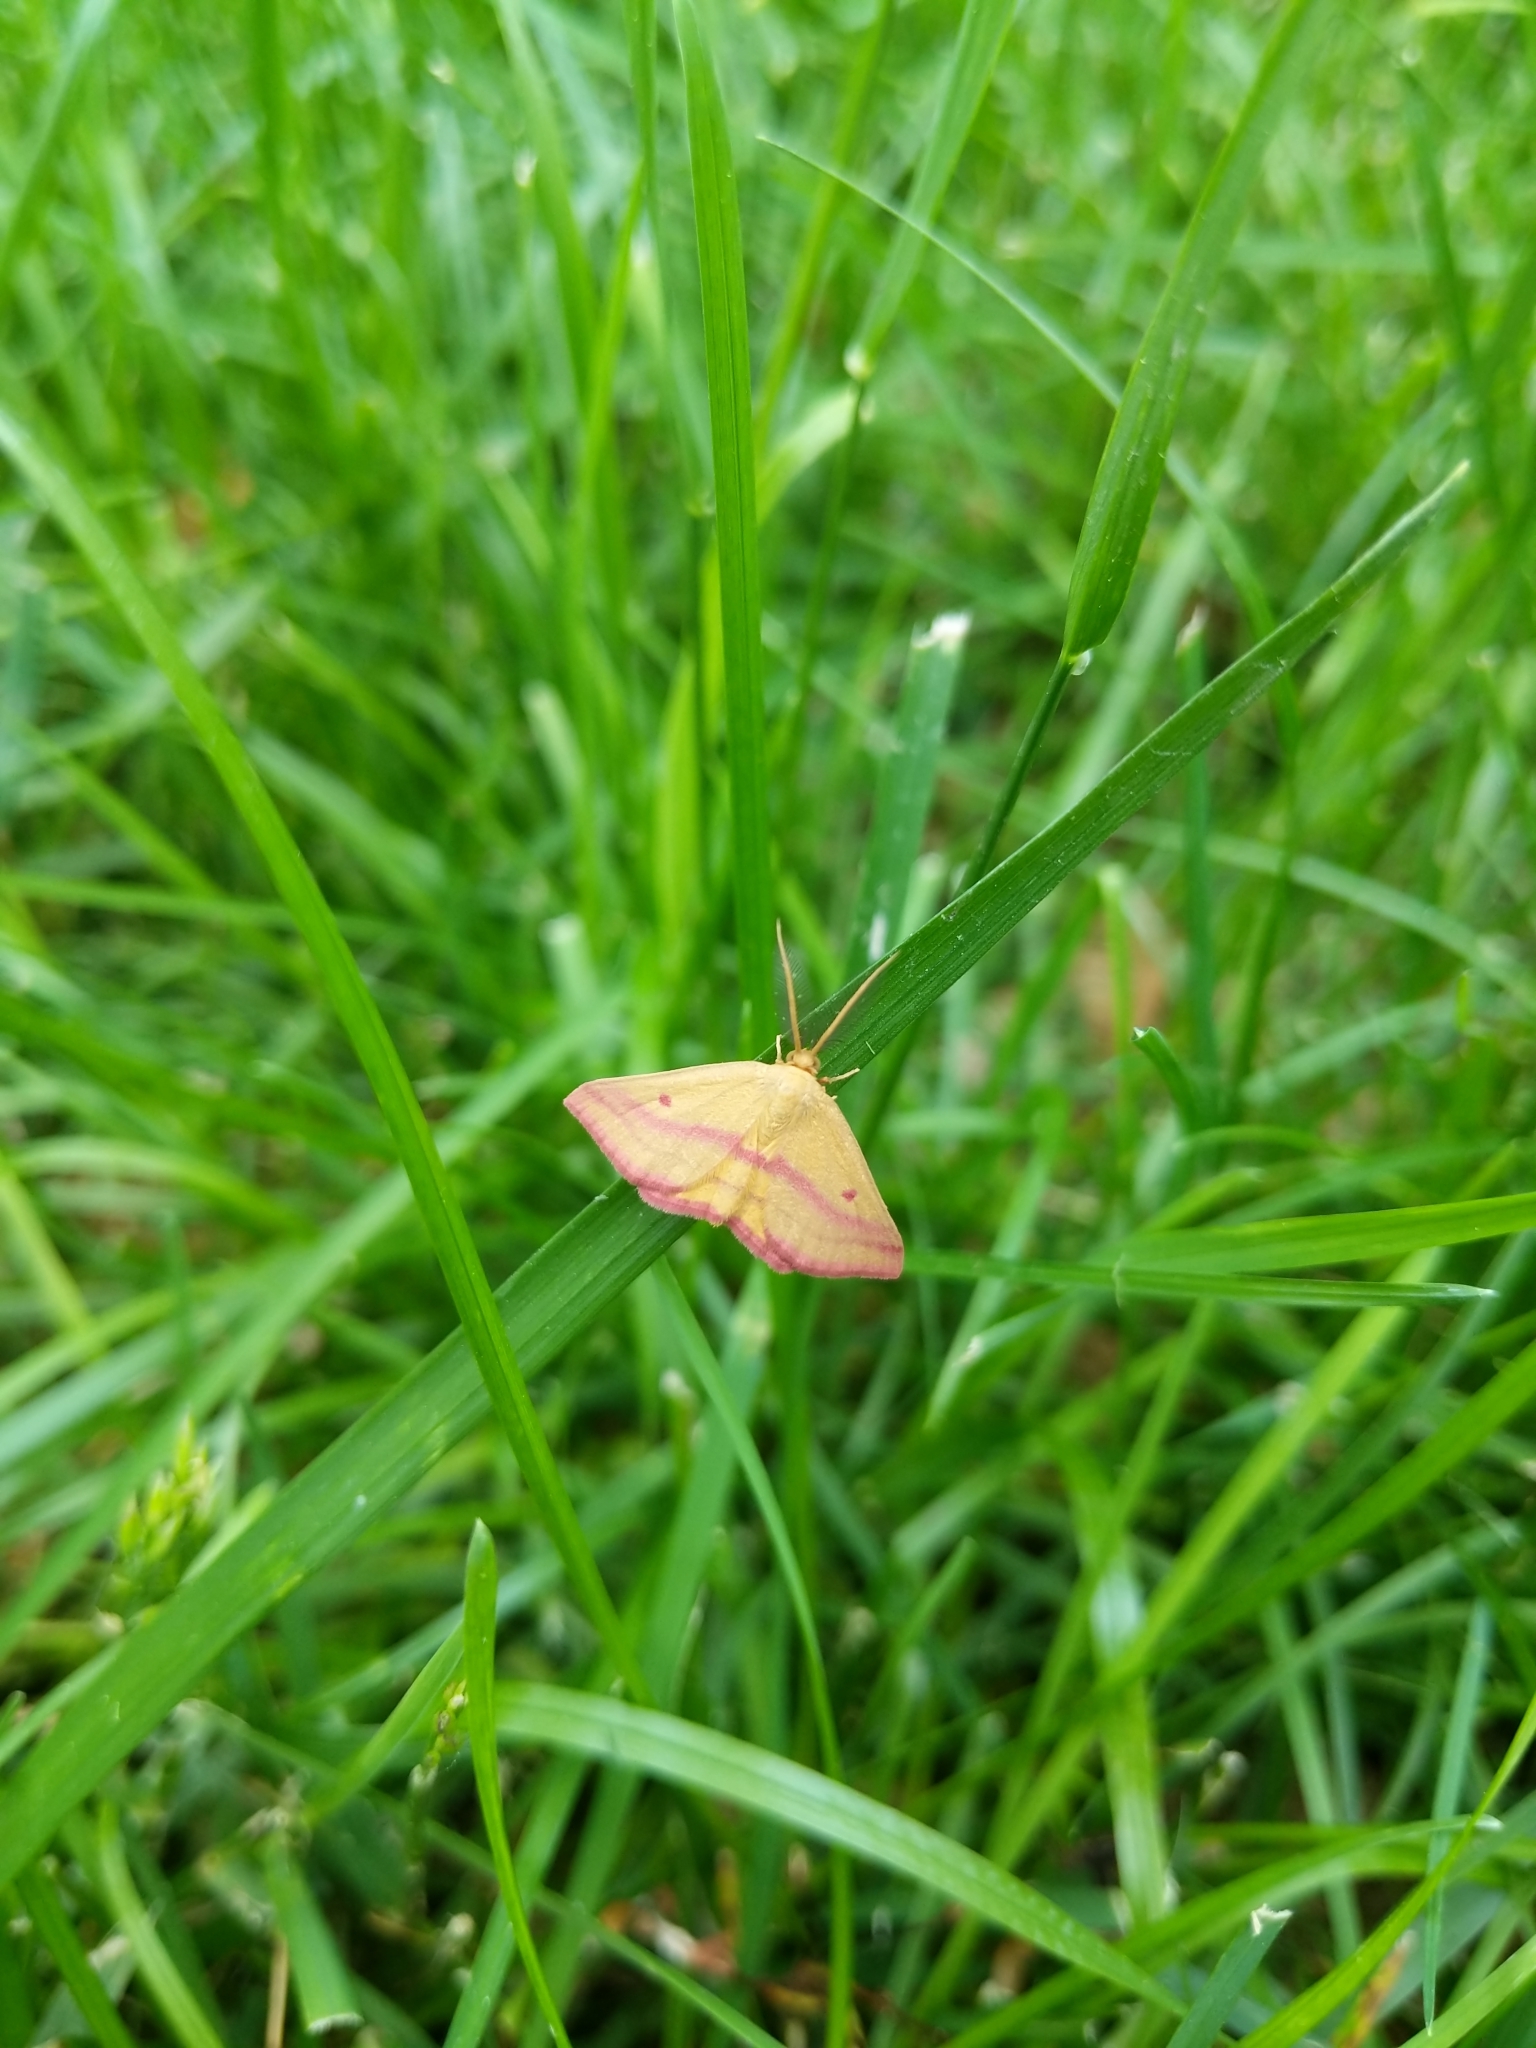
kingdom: Animalia
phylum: Arthropoda
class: Insecta
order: Lepidoptera
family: Geometridae
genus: Haematopis
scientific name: Haematopis grataria
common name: Chickweed geometer
